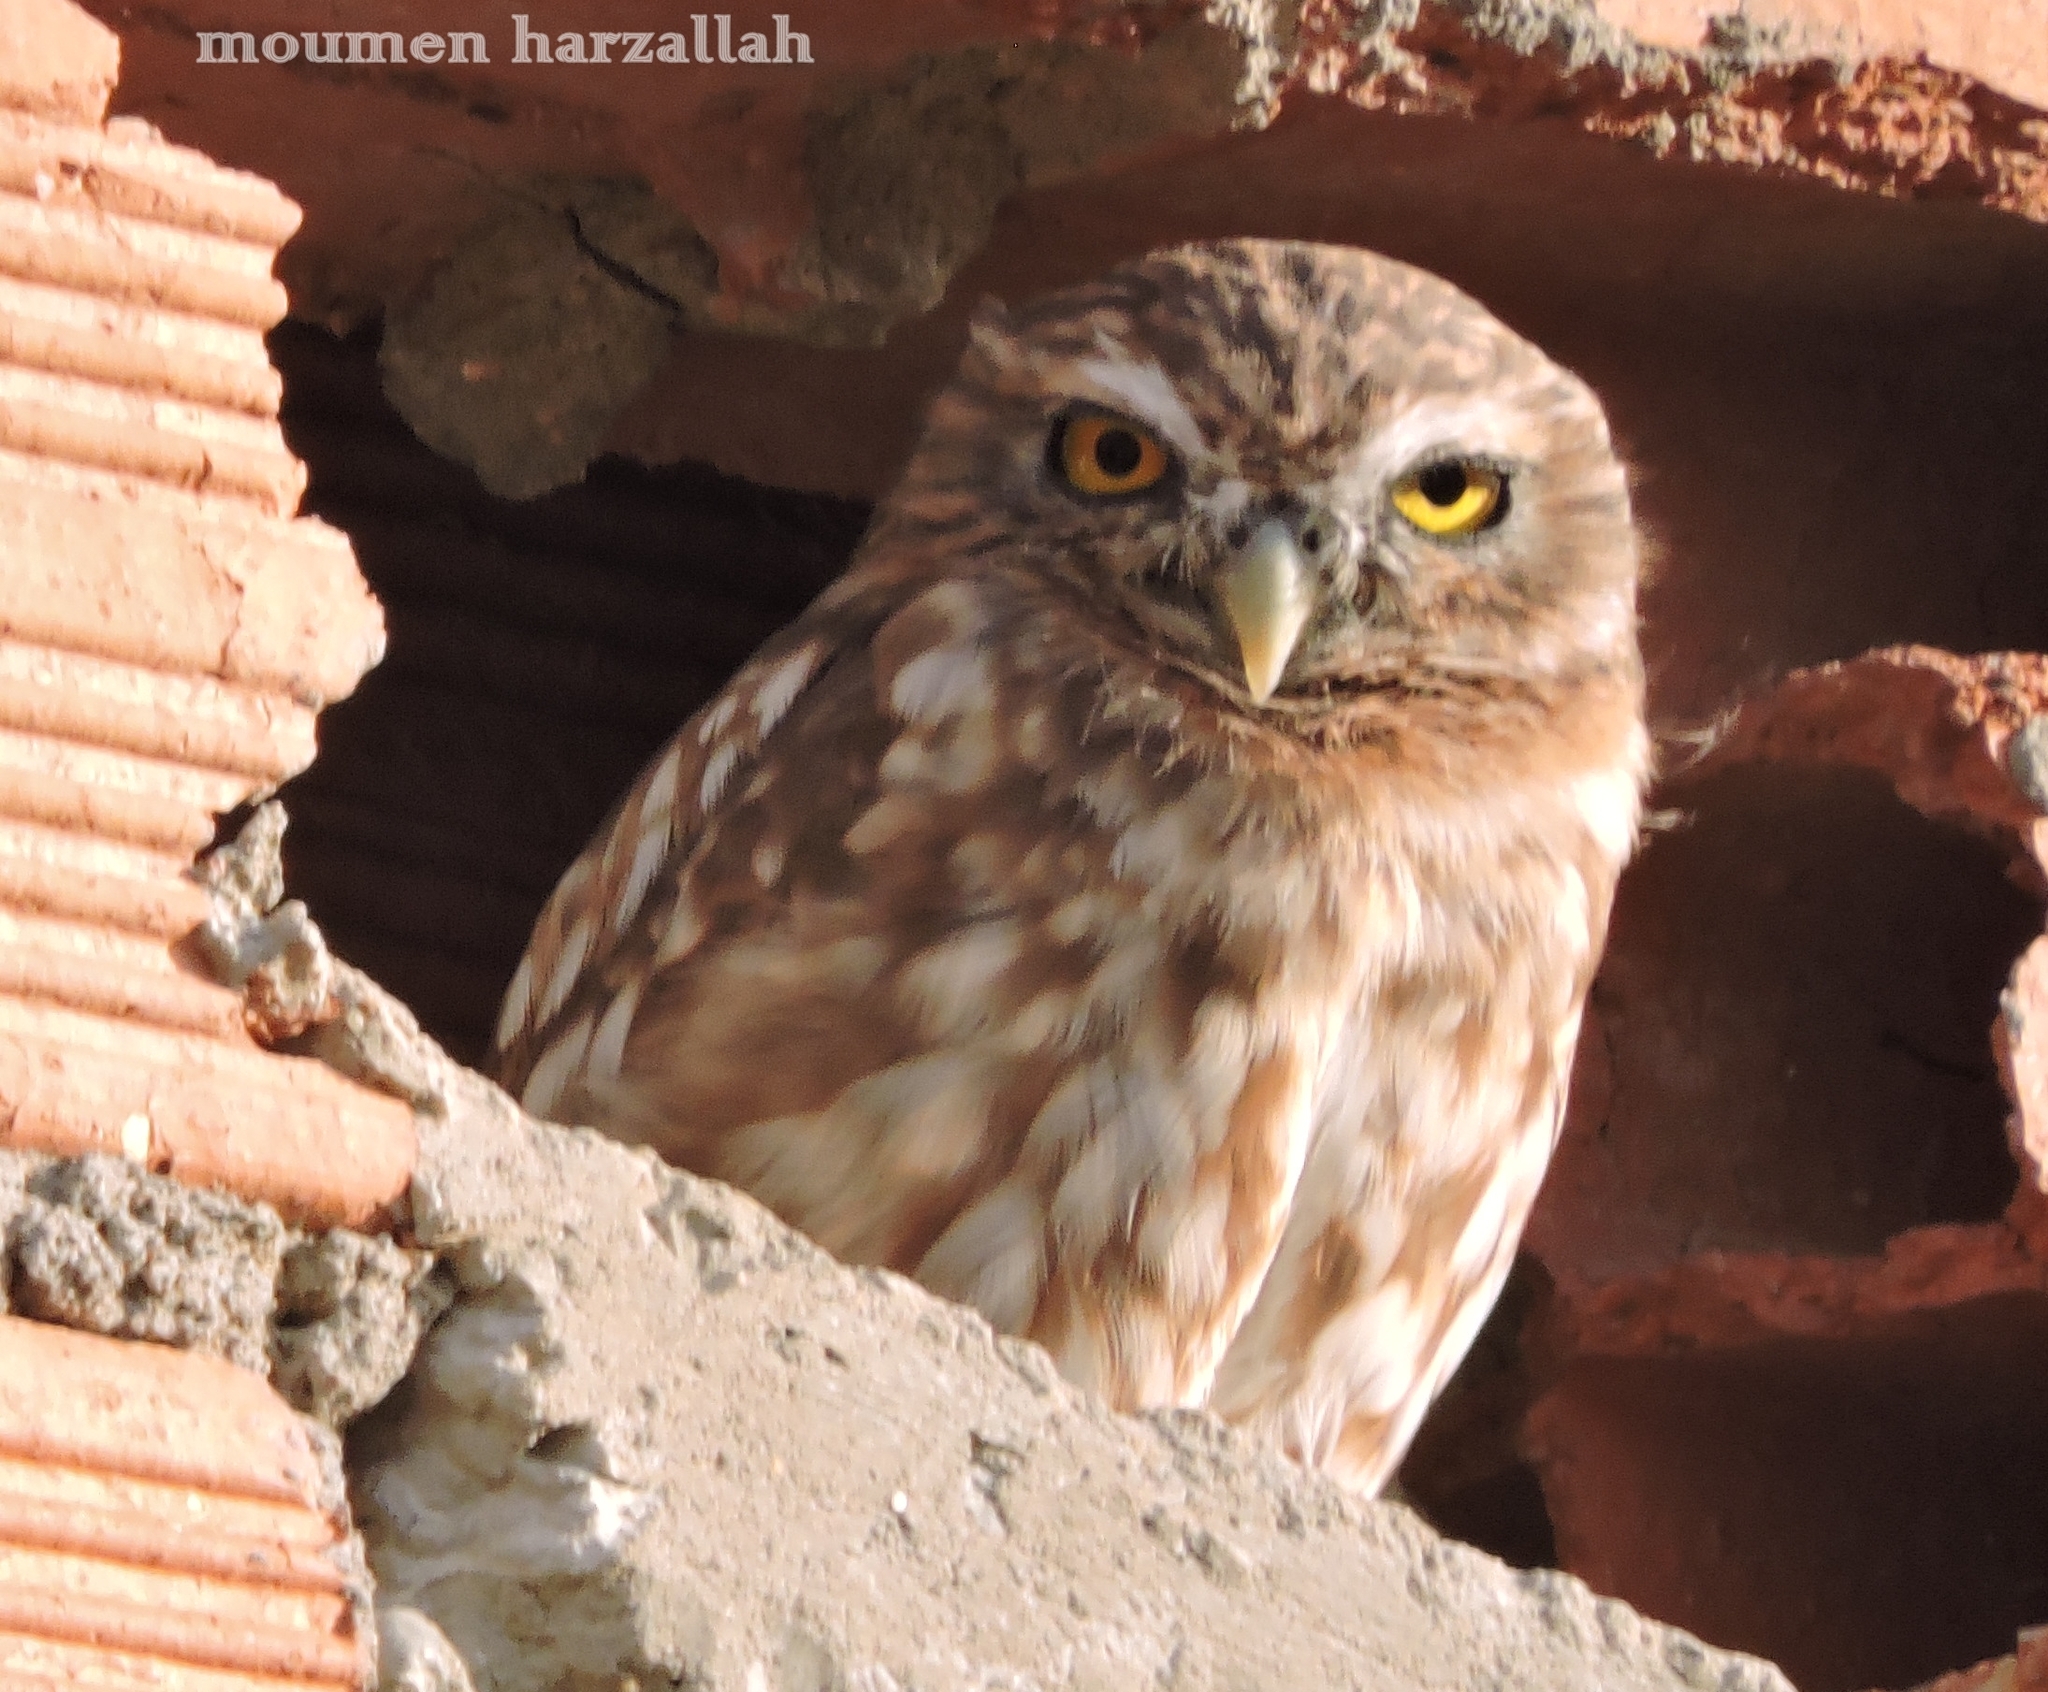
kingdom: Animalia
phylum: Chordata
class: Aves
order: Strigiformes
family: Strigidae
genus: Athene
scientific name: Athene noctua
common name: Little owl
